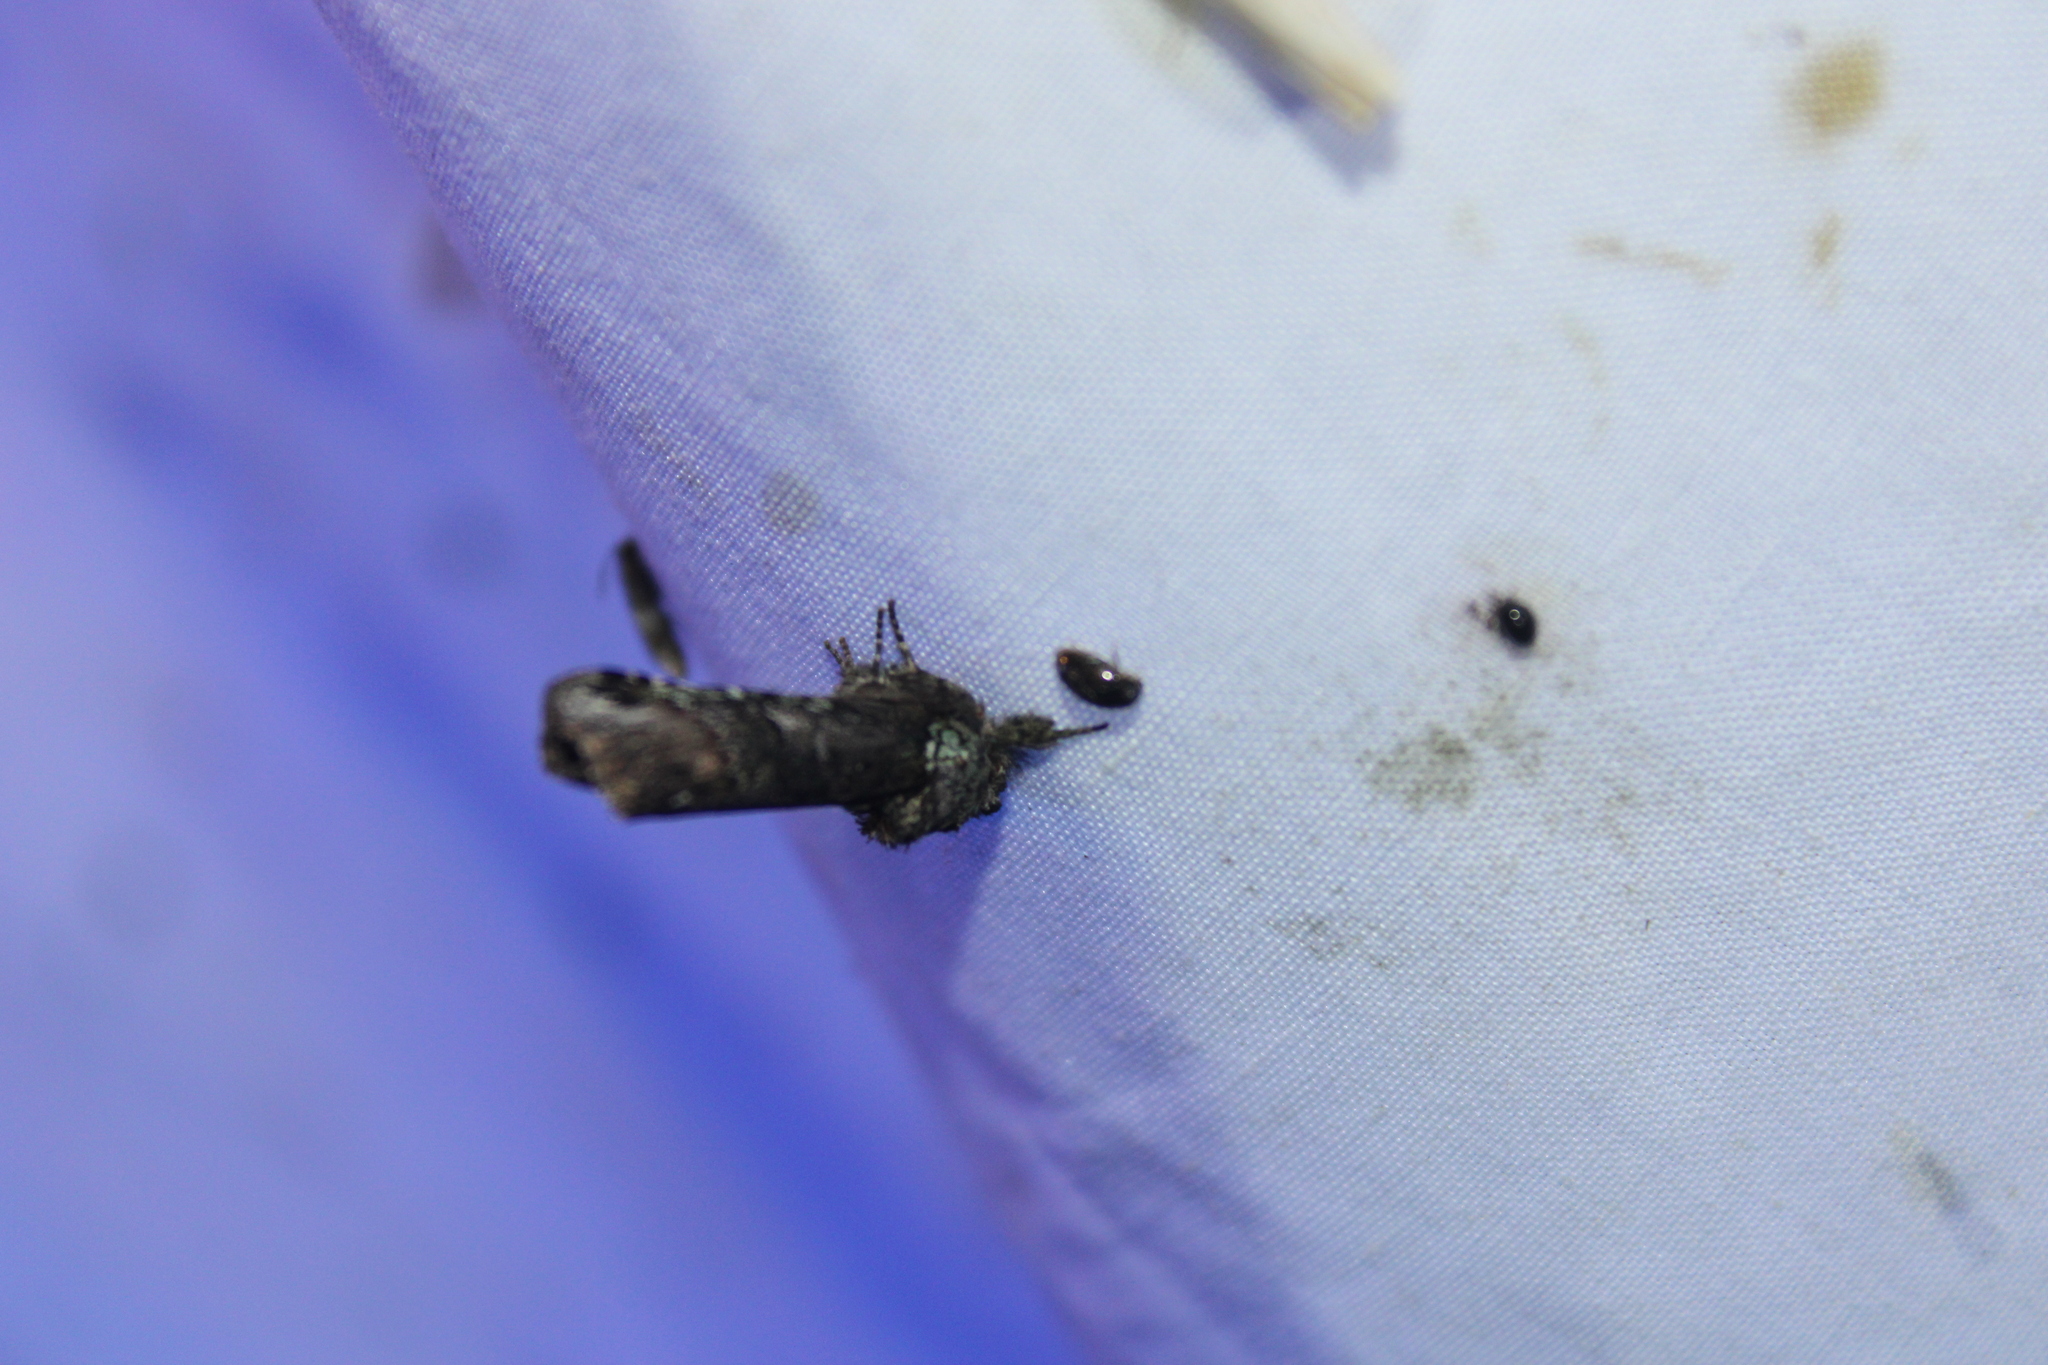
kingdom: Animalia
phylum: Arthropoda
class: Insecta
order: Lepidoptera
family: Notodontidae
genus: Schizura
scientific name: Schizura
